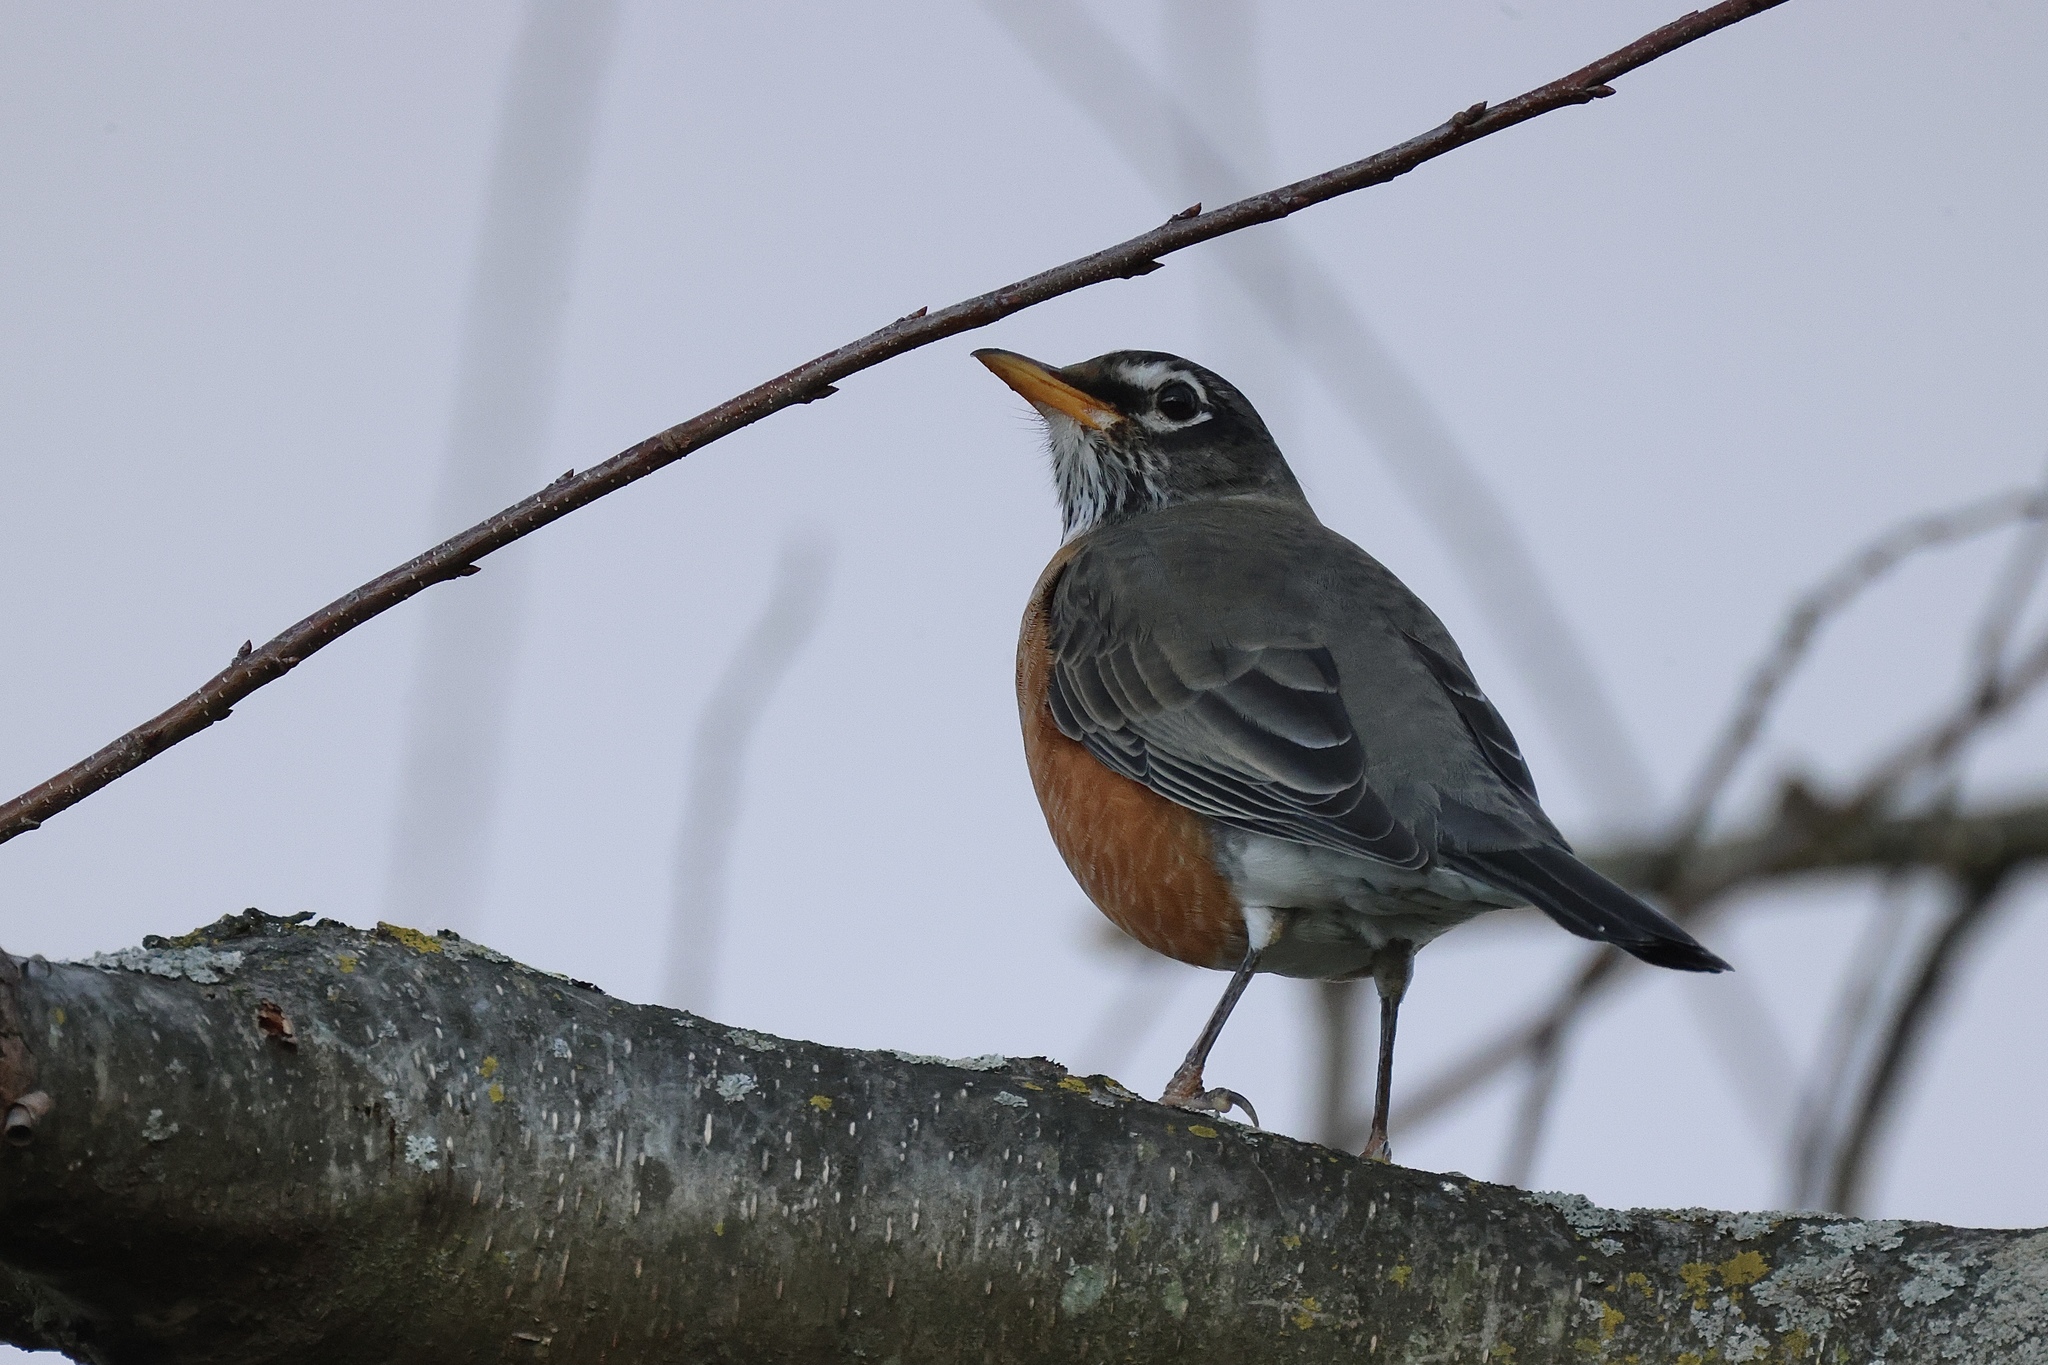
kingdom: Animalia
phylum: Chordata
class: Aves
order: Passeriformes
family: Turdidae
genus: Turdus
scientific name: Turdus migratorius
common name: American robin
